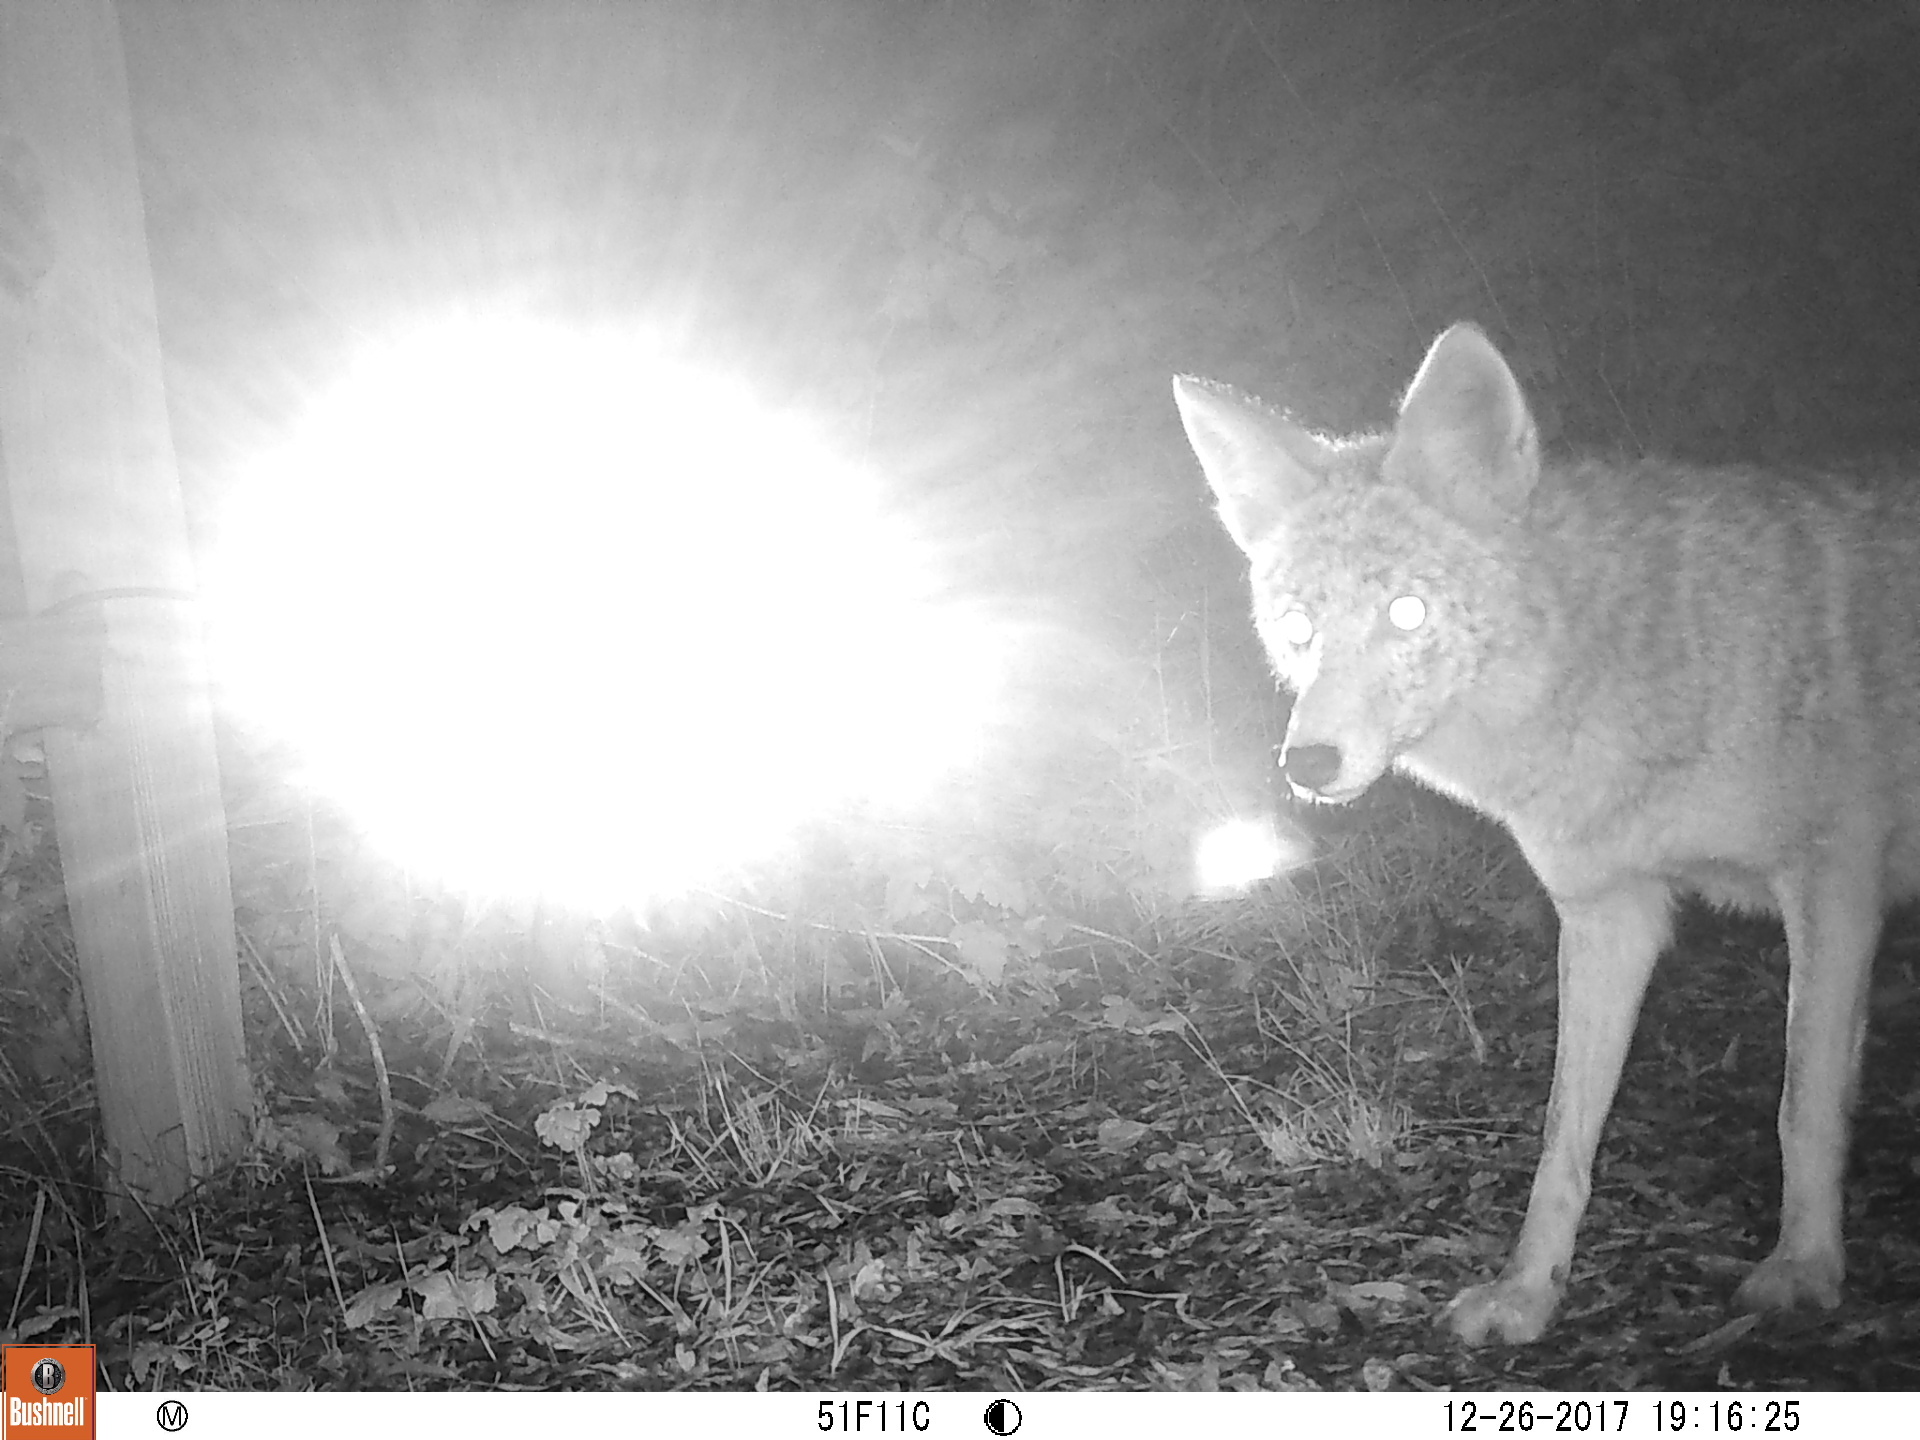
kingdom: Animalia
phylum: Chordata
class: Mammalia
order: Carnivora
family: Canidae
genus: Canis
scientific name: Canis latrans
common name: Coyote
